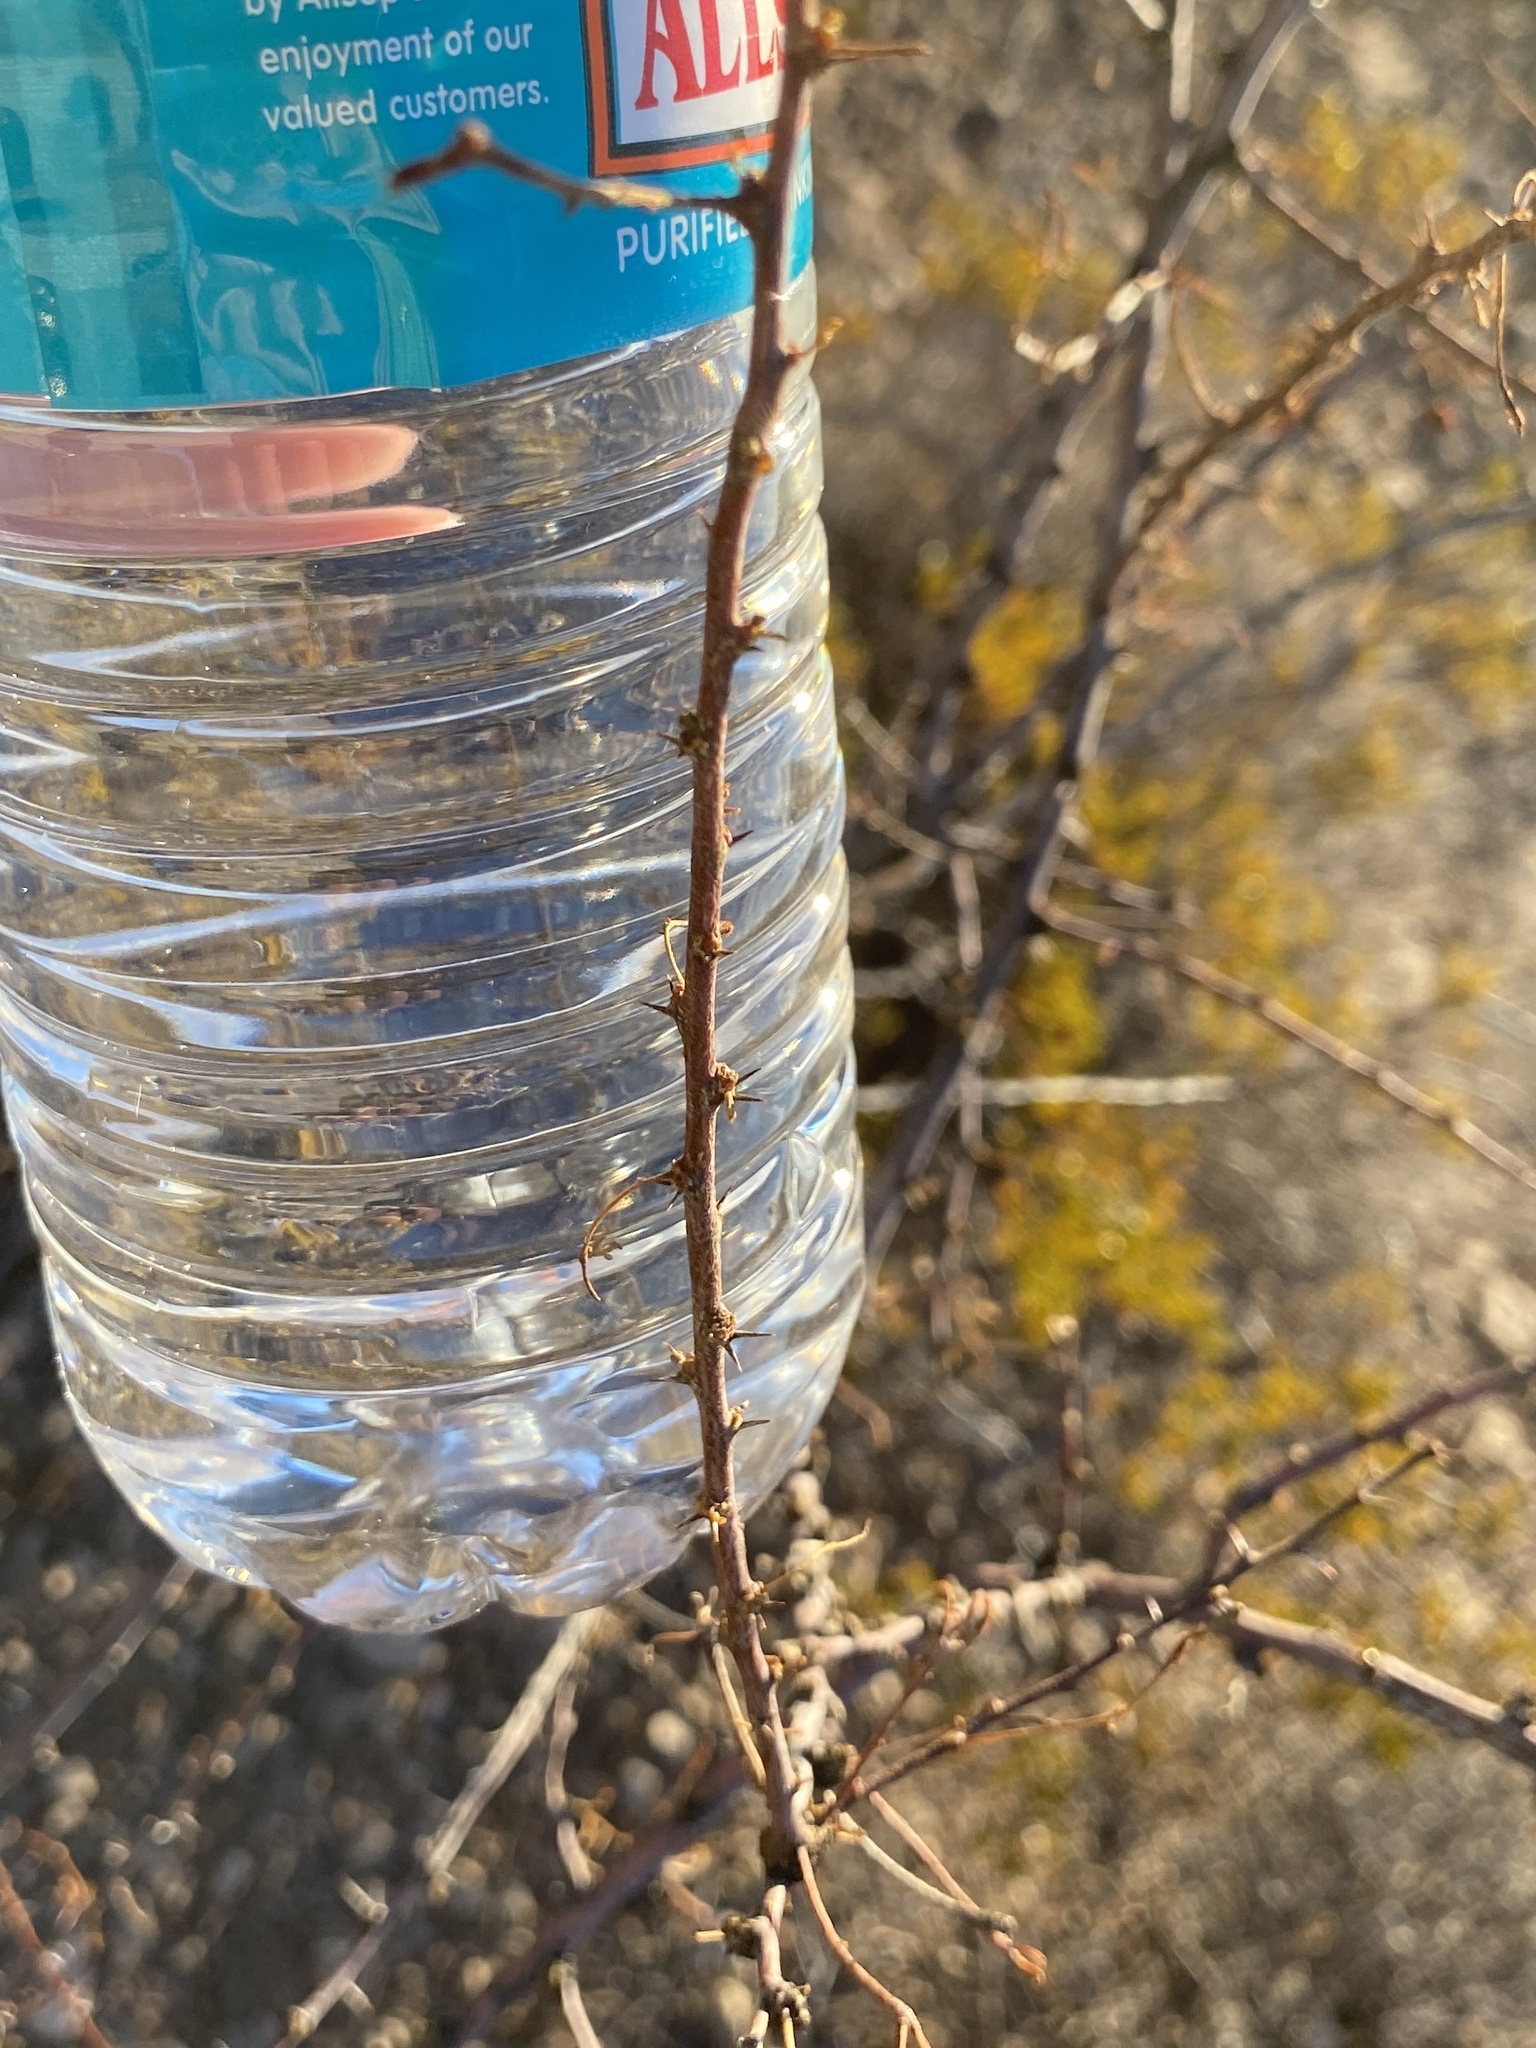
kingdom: Plantae
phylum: Tracheophyta
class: Magnoliopsida
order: Fabales
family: Fabaceae
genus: Vachellia
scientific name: Vachellia constricta
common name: Mescat acacia
